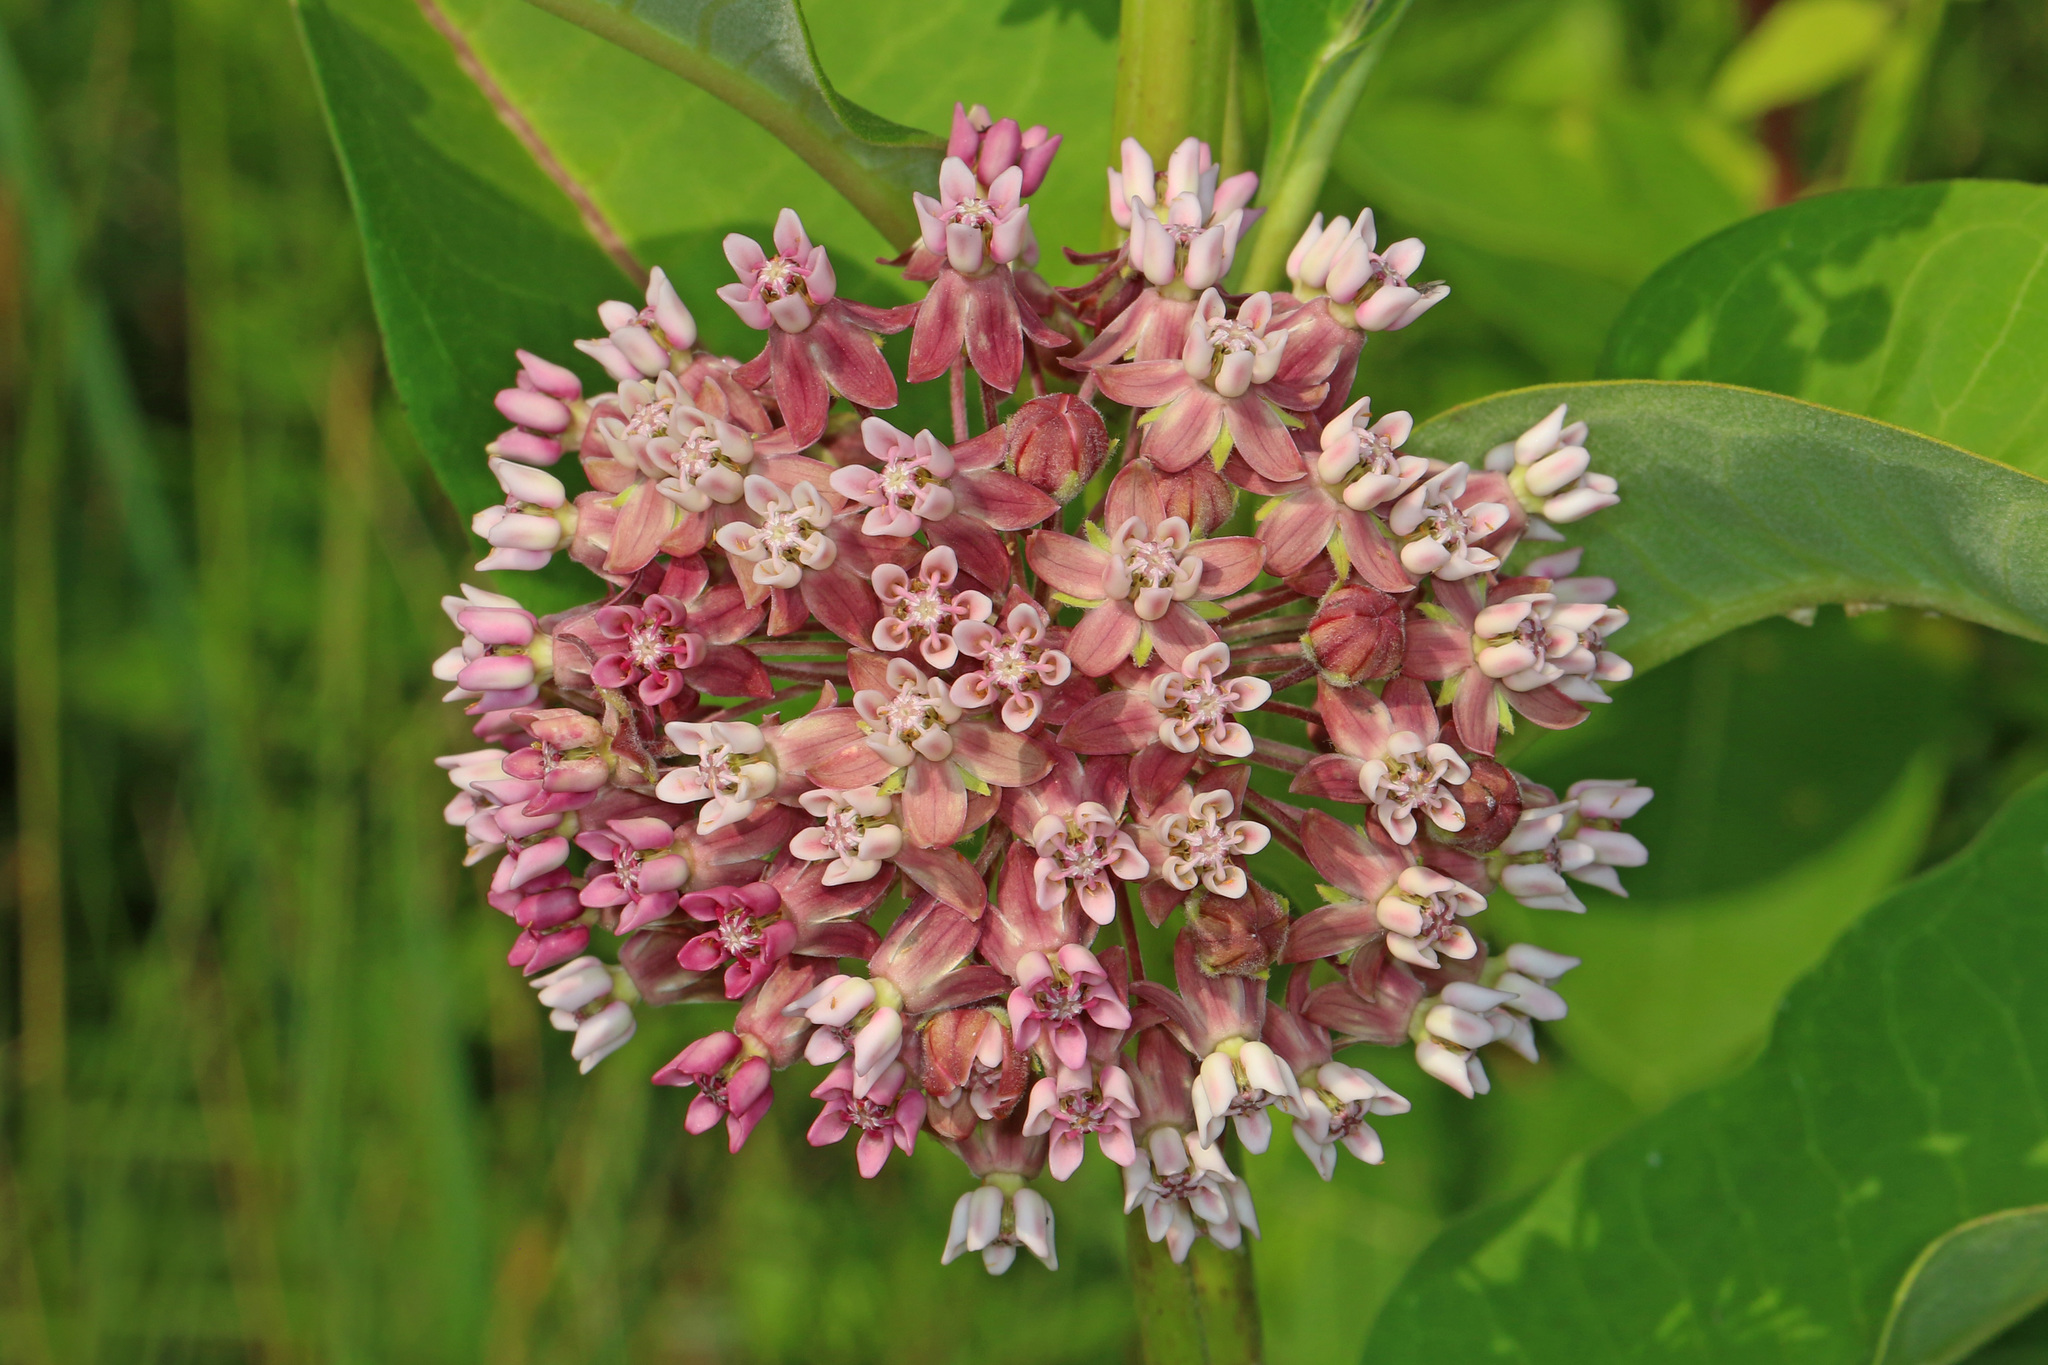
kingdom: Plantae
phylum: Tracheophyta
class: Magnoliopsida
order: Gentianales
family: Apocynaceae
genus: Asclepias
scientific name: Asclepias syriaca
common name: Common milkweed
